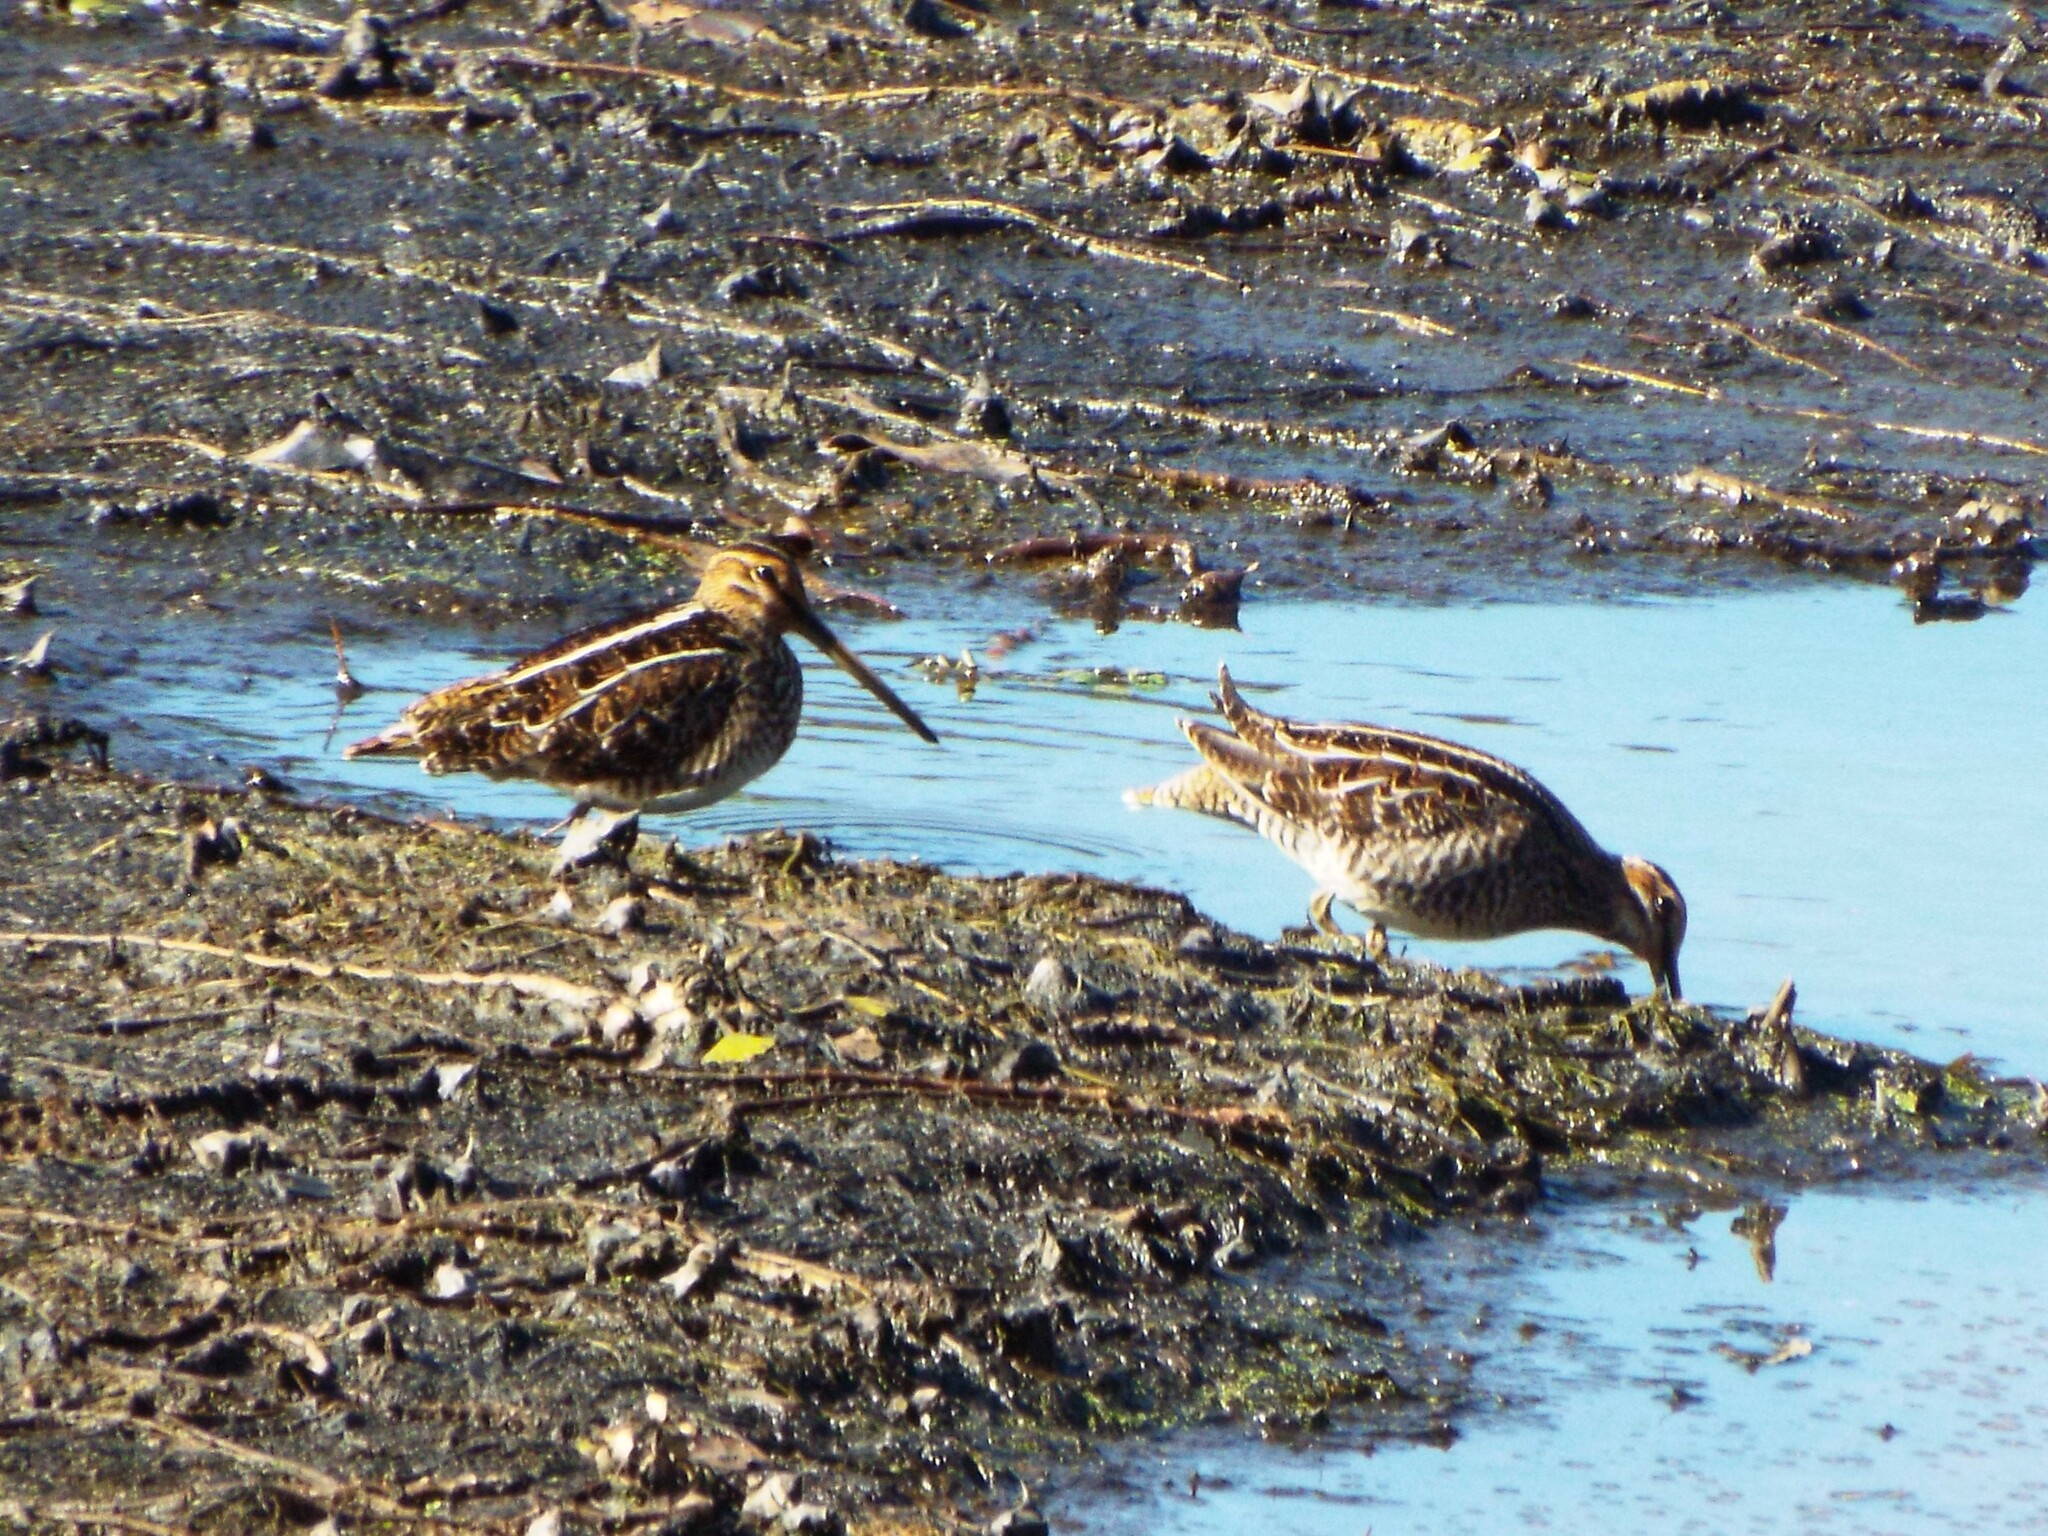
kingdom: Animalia
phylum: Chordata
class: Aves
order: Charadriiformes
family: Scolopacidae
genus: Gallinago
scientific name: Gallinago delicata
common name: Wilson's snipe
